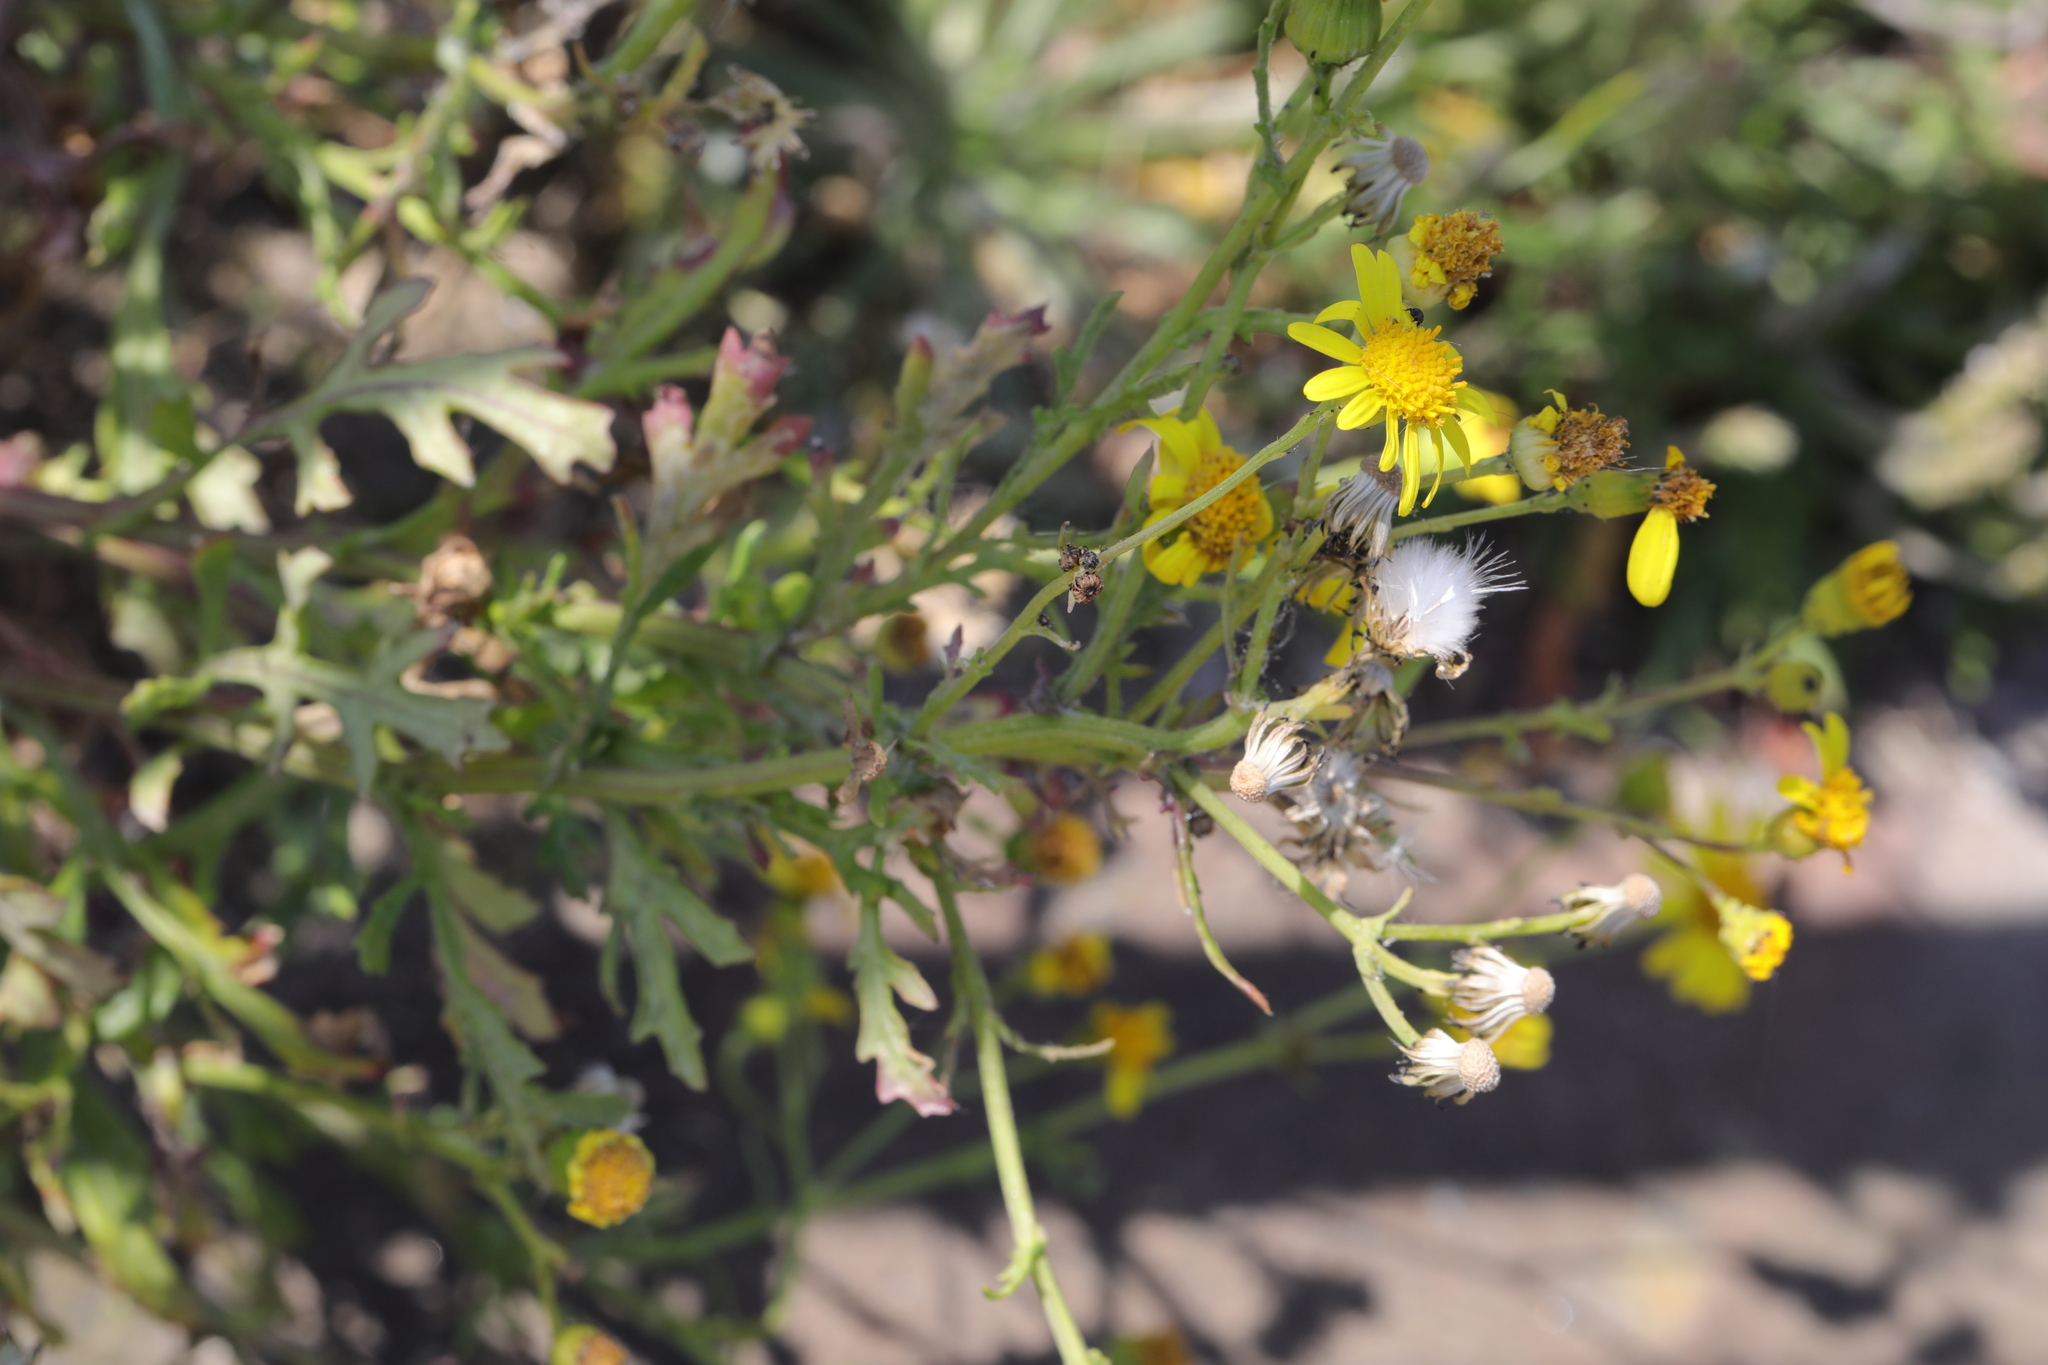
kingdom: Plantae
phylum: Tracheophyta
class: Magnoliopsida
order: Asterales
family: Asteraceae
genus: Senecio
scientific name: Senecio squalidus
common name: Oxford ragwort
